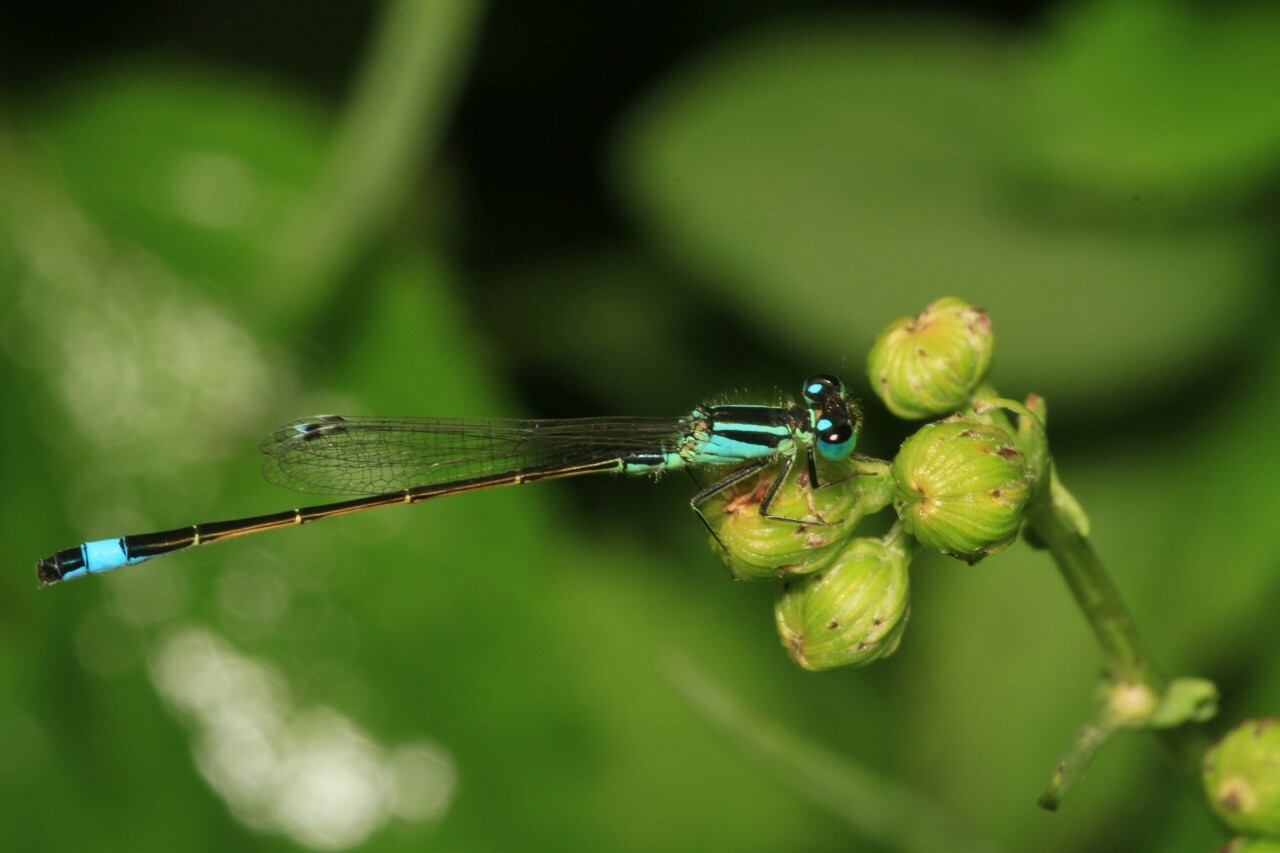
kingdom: Animalia
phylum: Arthropoda
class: Insecta
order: Odonata
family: Coenagrionidae
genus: Ischnura
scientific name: Ischnura elegans
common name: Blue-tailed damselfly
